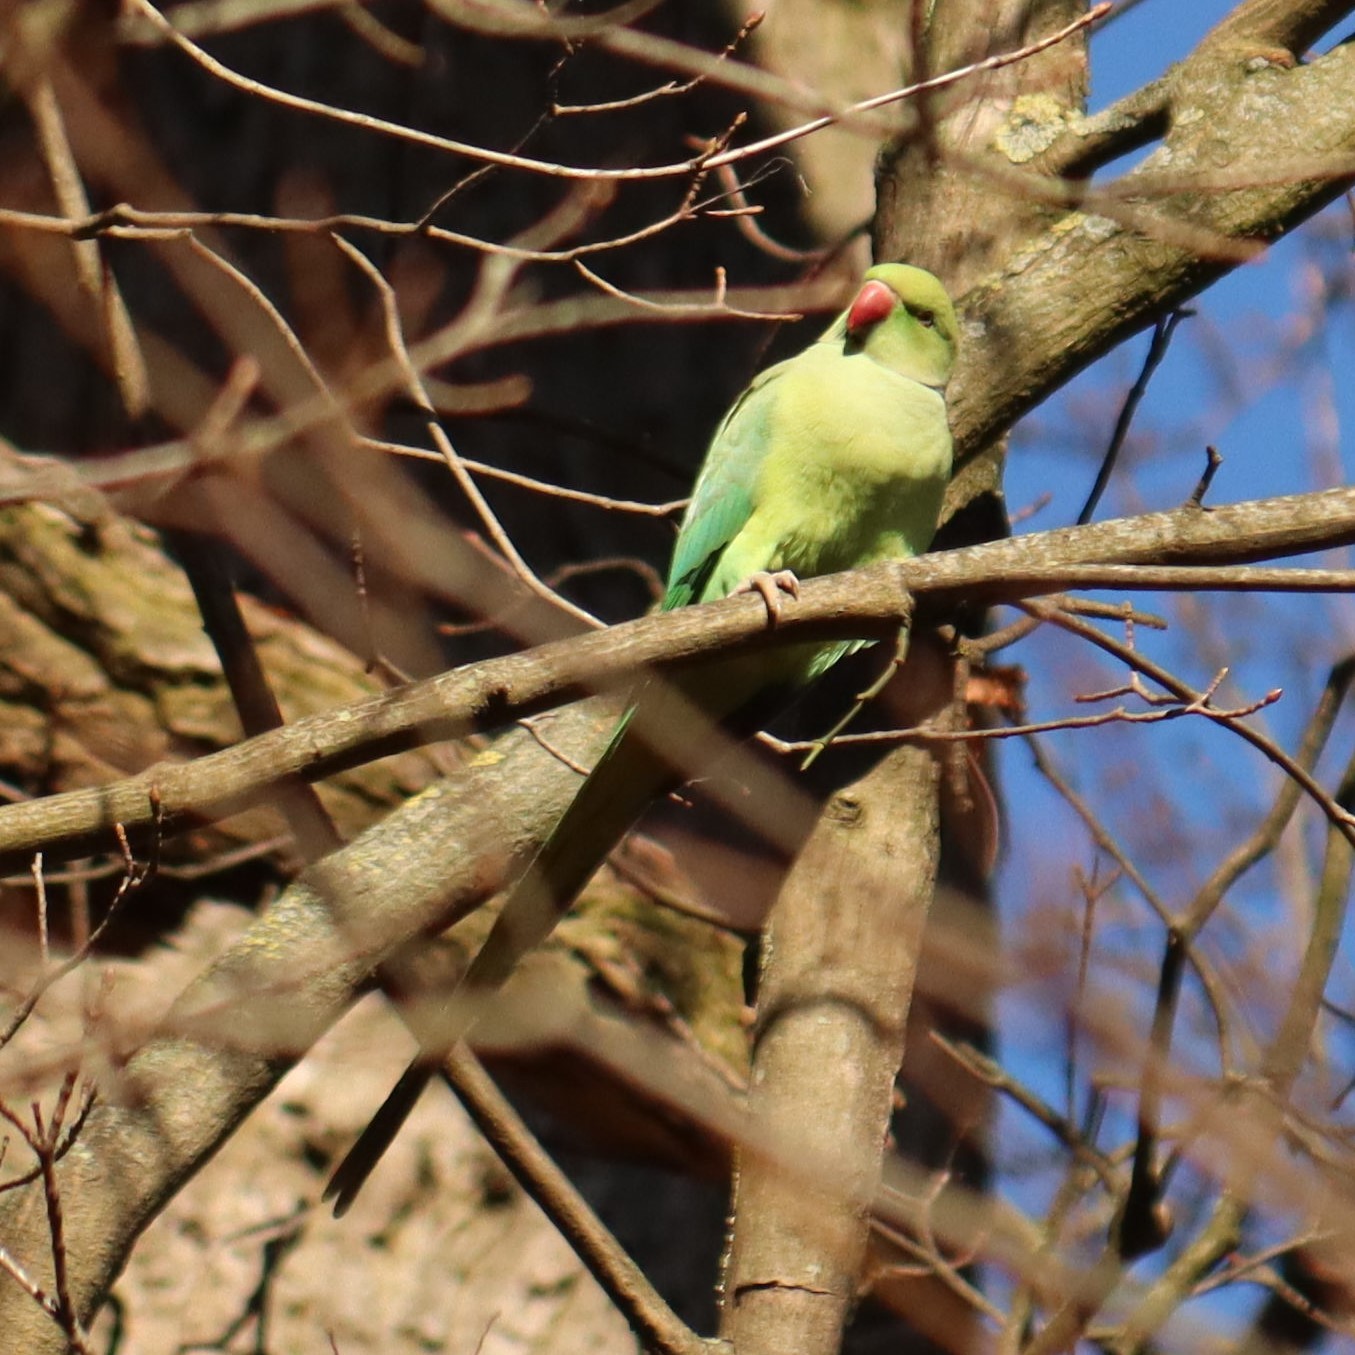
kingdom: Animalia
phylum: Chordata
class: Aves
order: Psittaciformes
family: Psittacidae
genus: Psittacula
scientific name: Psittacula krameri
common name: Rose-ringed parakeet
